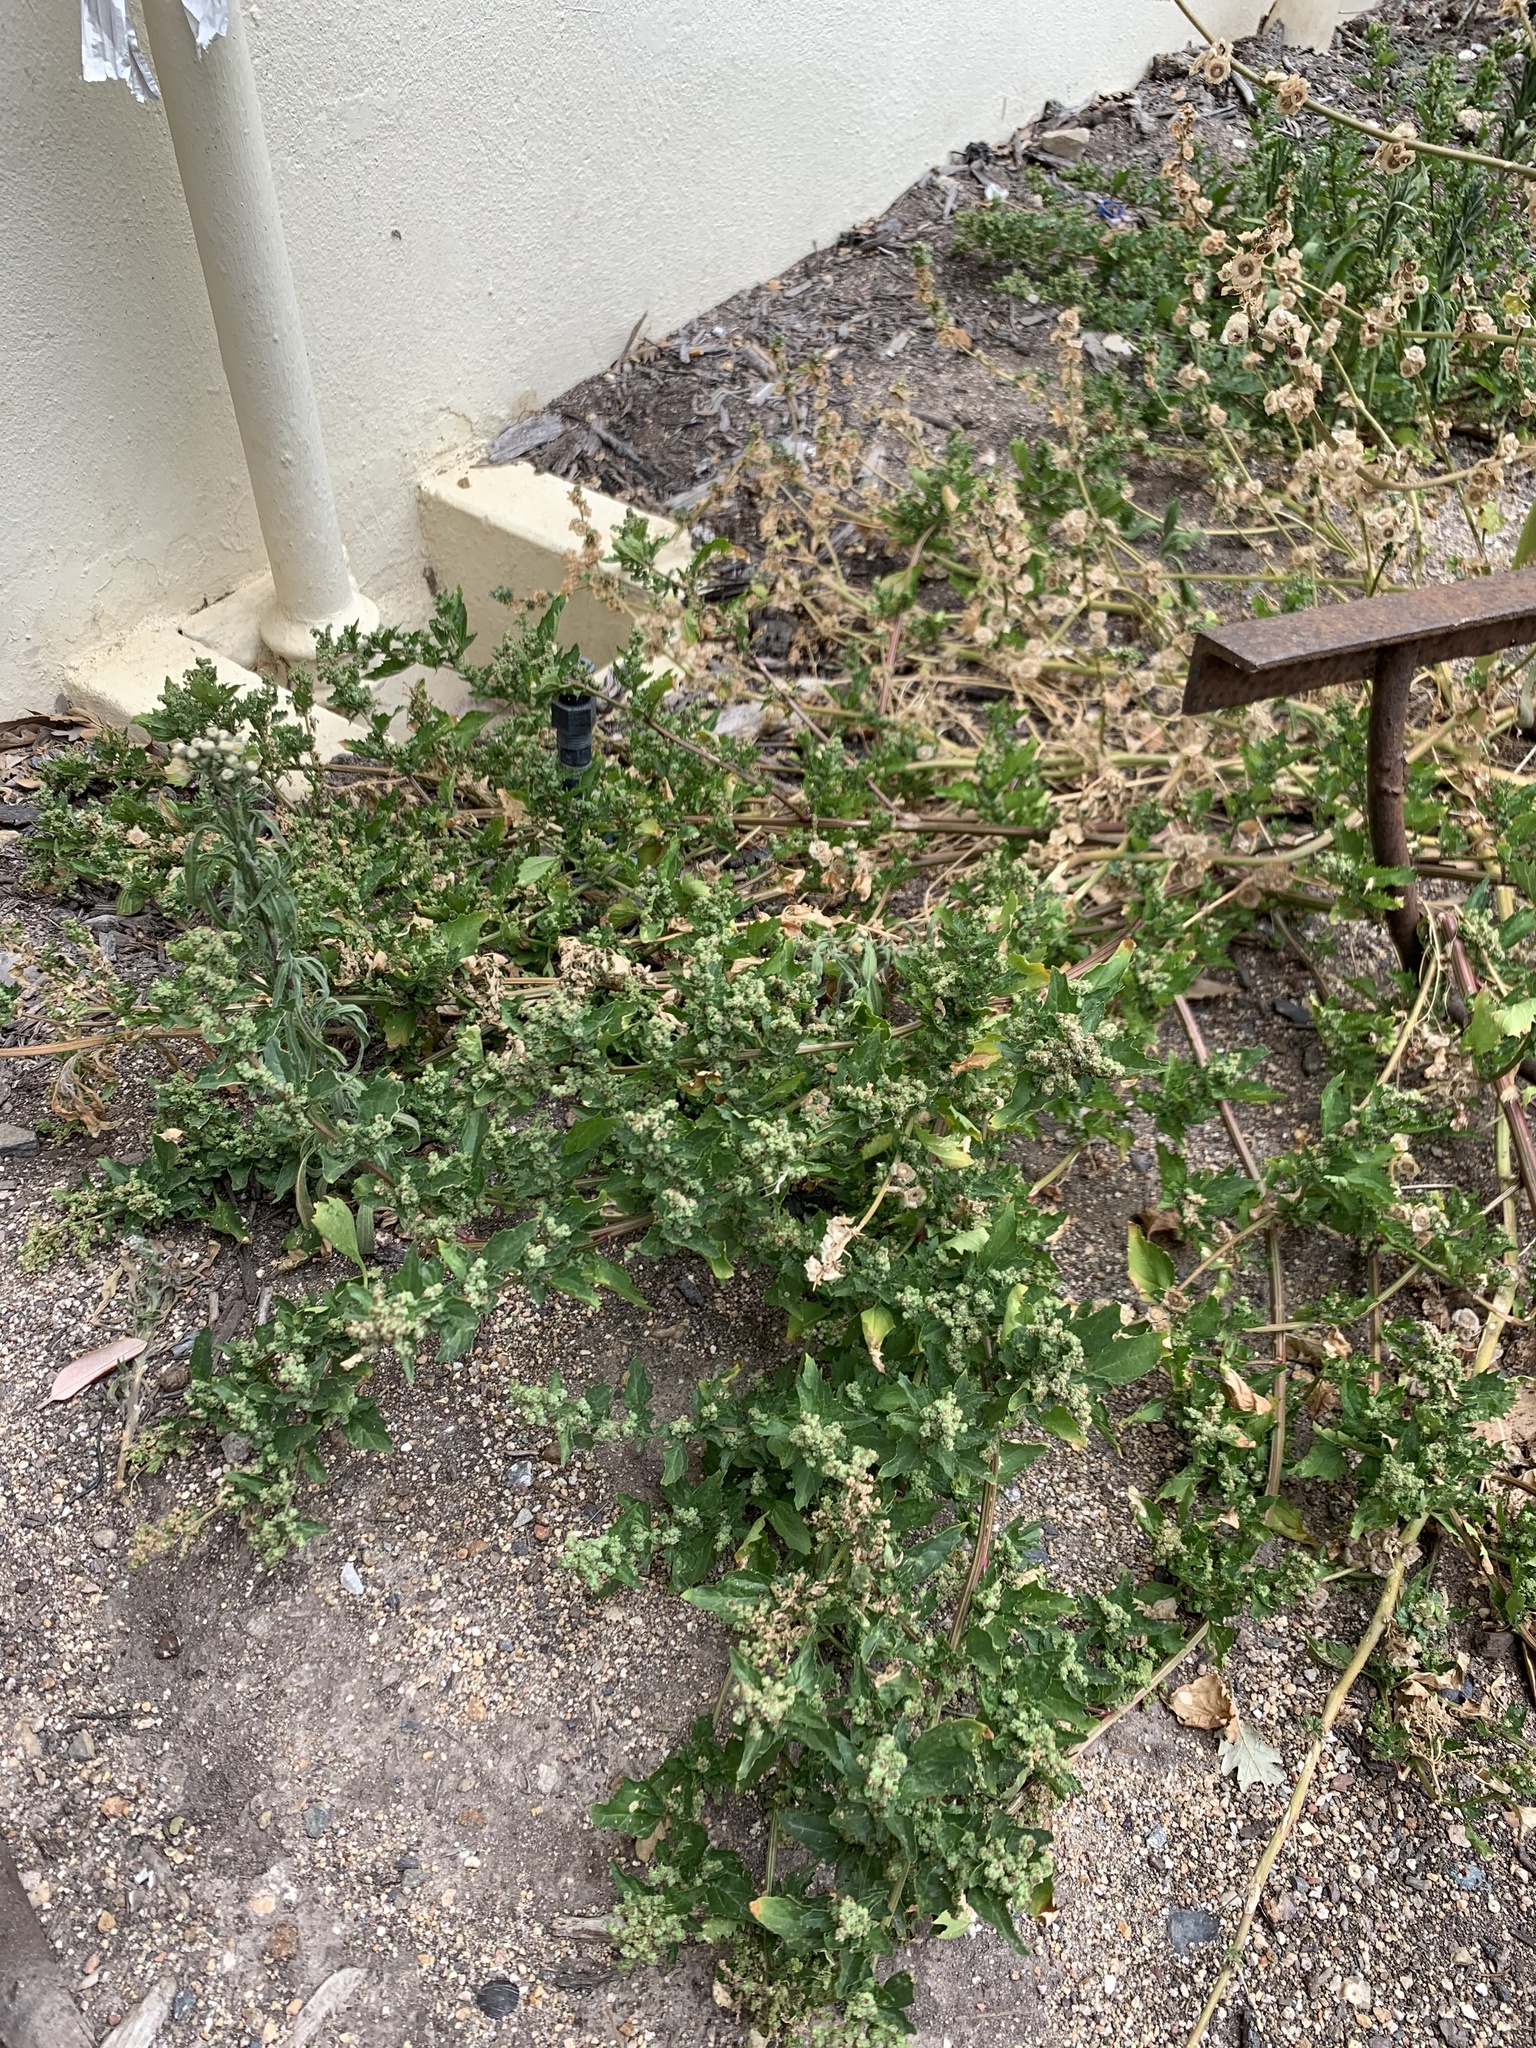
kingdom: Plantae
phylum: Tracheophyta
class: Magnoliopsida
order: Caryophyllales
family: Amaranthaceae
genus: Chenopodiastrum
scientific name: Chenopodiastrum murale
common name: Sowbane
